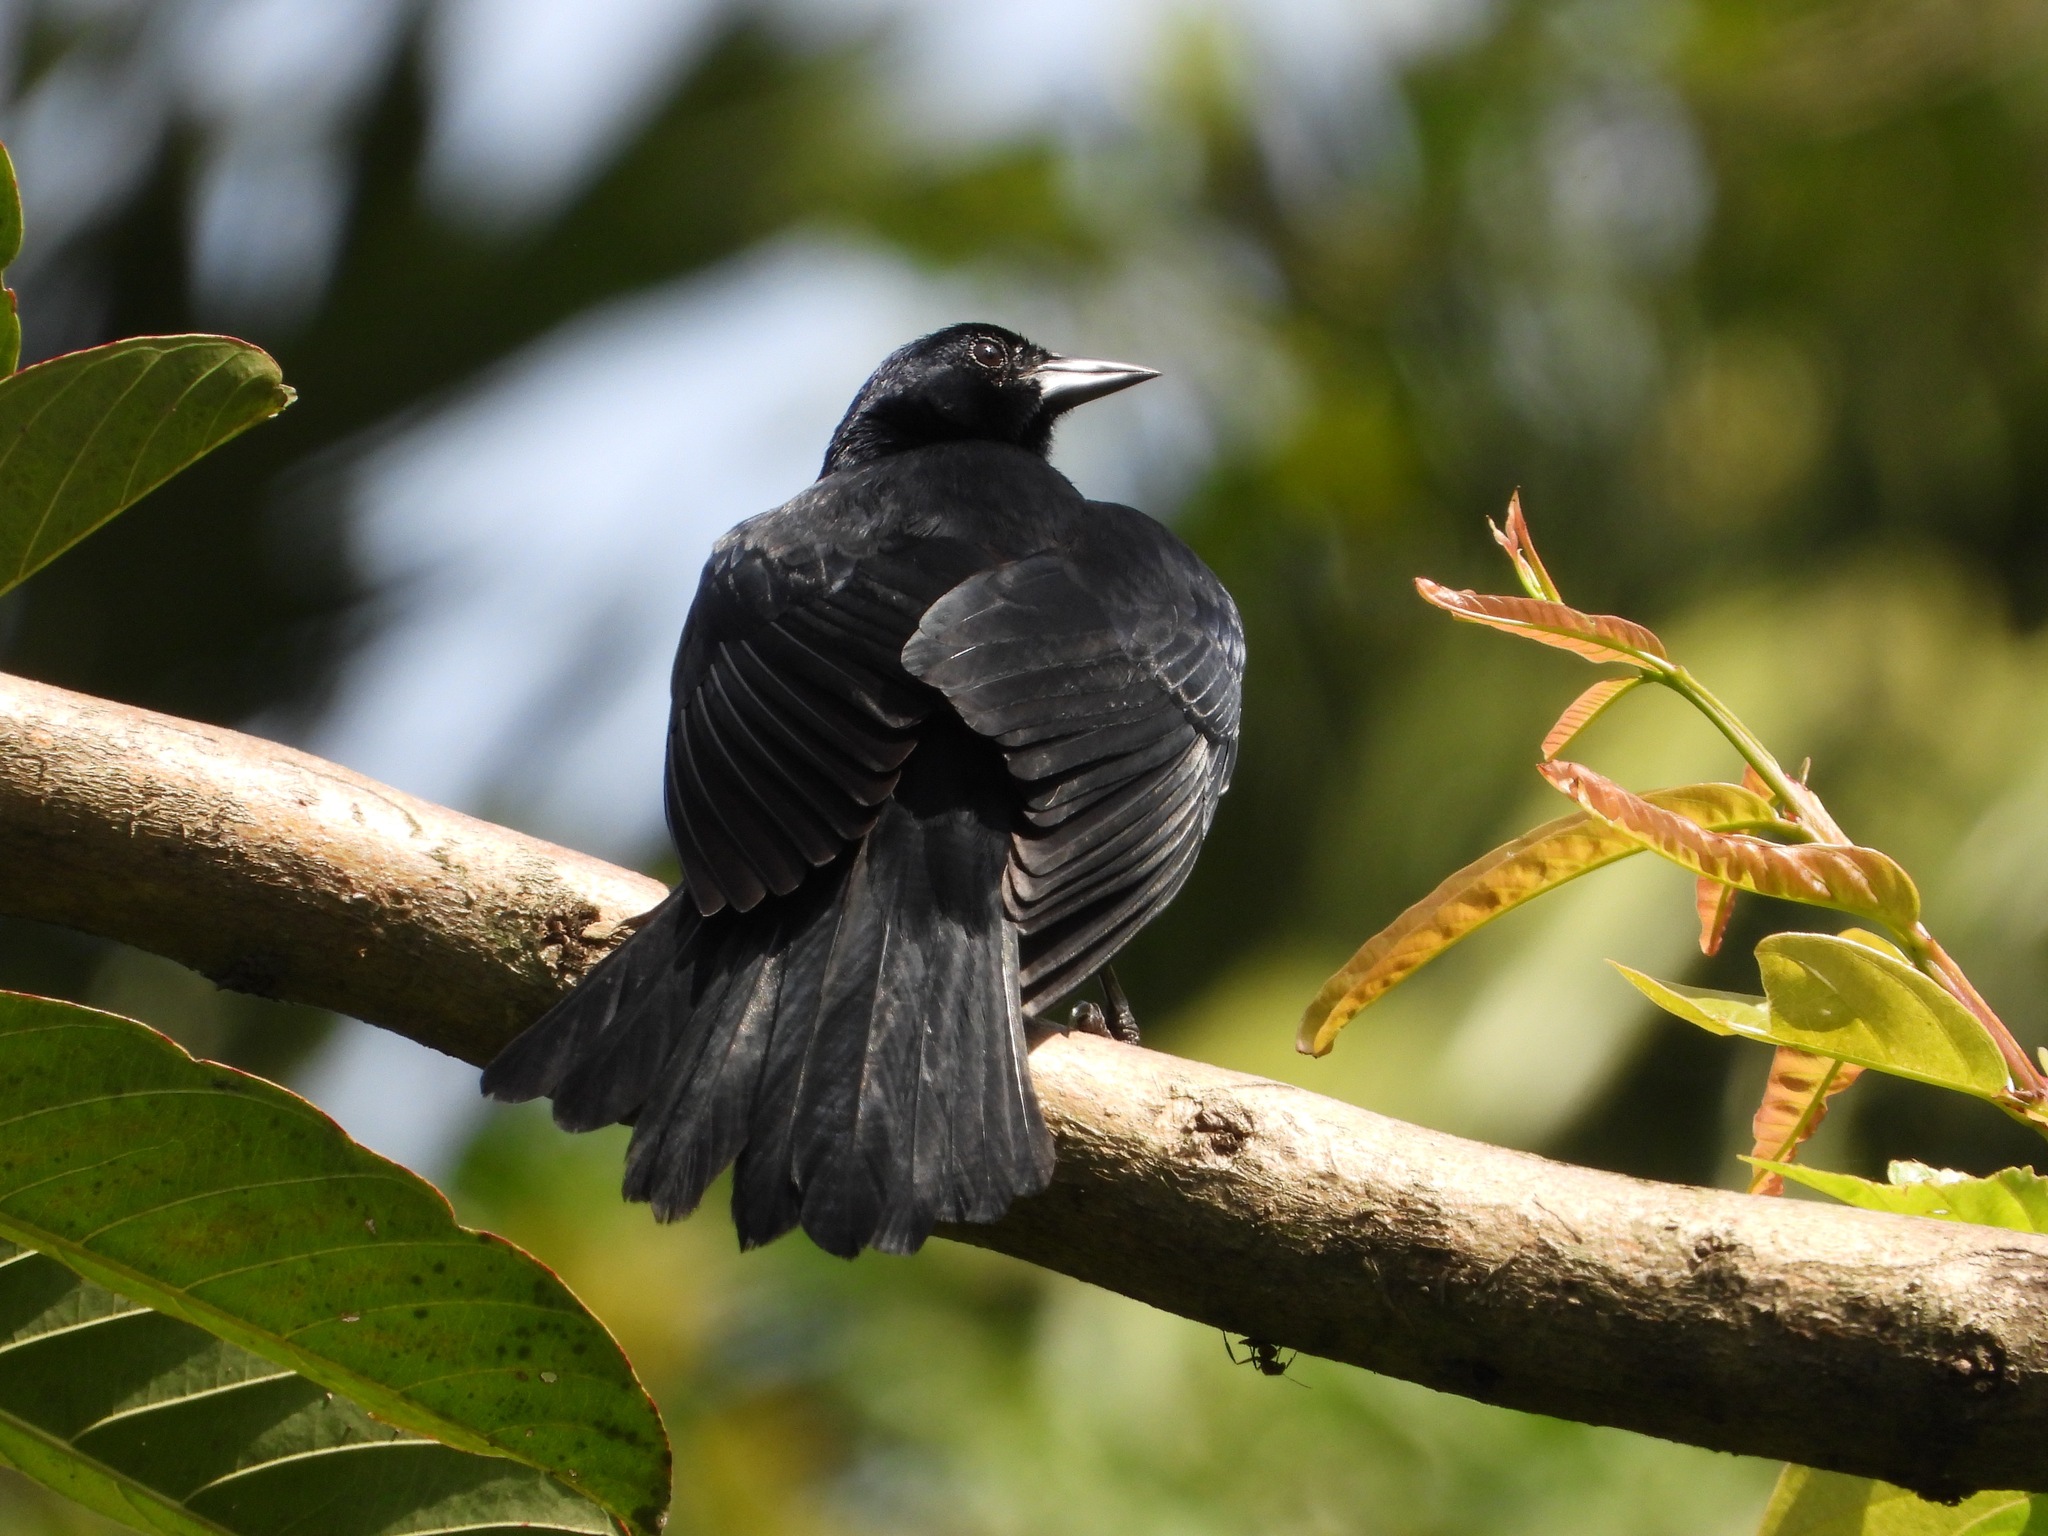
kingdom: Animalia
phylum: Chordata
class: Aves
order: Passeriformes
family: Icteridae
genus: Dives
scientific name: Dives dives
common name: Melodious blackbird
